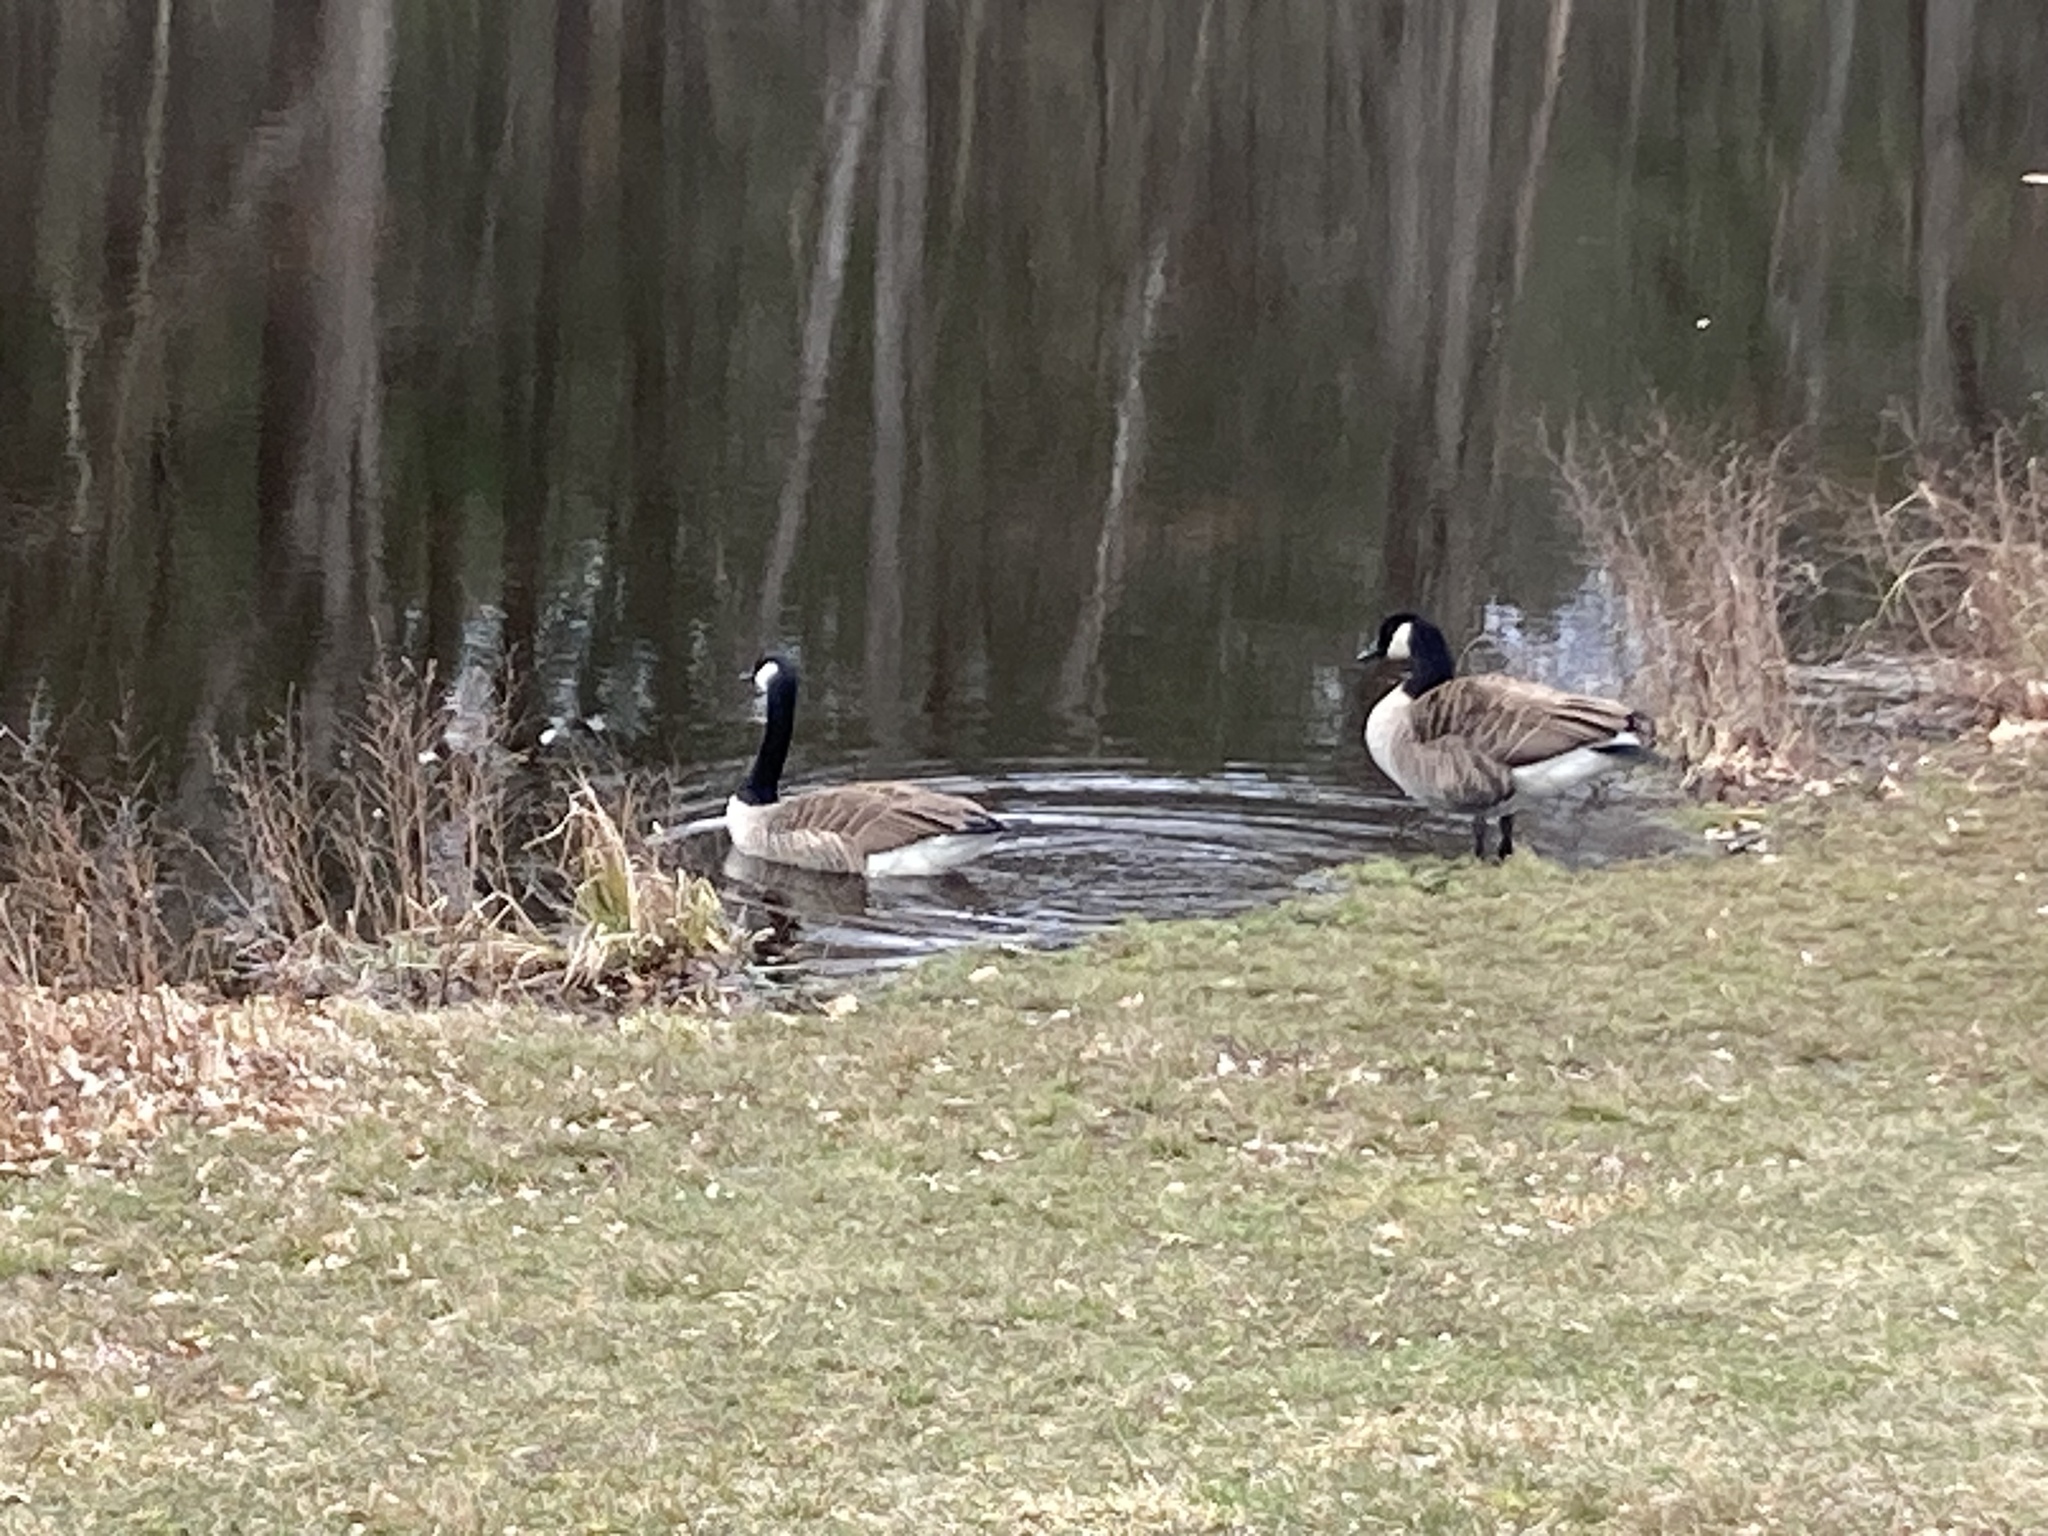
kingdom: Animalia
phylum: Chordata
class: Aves
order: Anseriformes
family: Anatidae
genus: Branta
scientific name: Branta canadensis
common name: Canada goose
